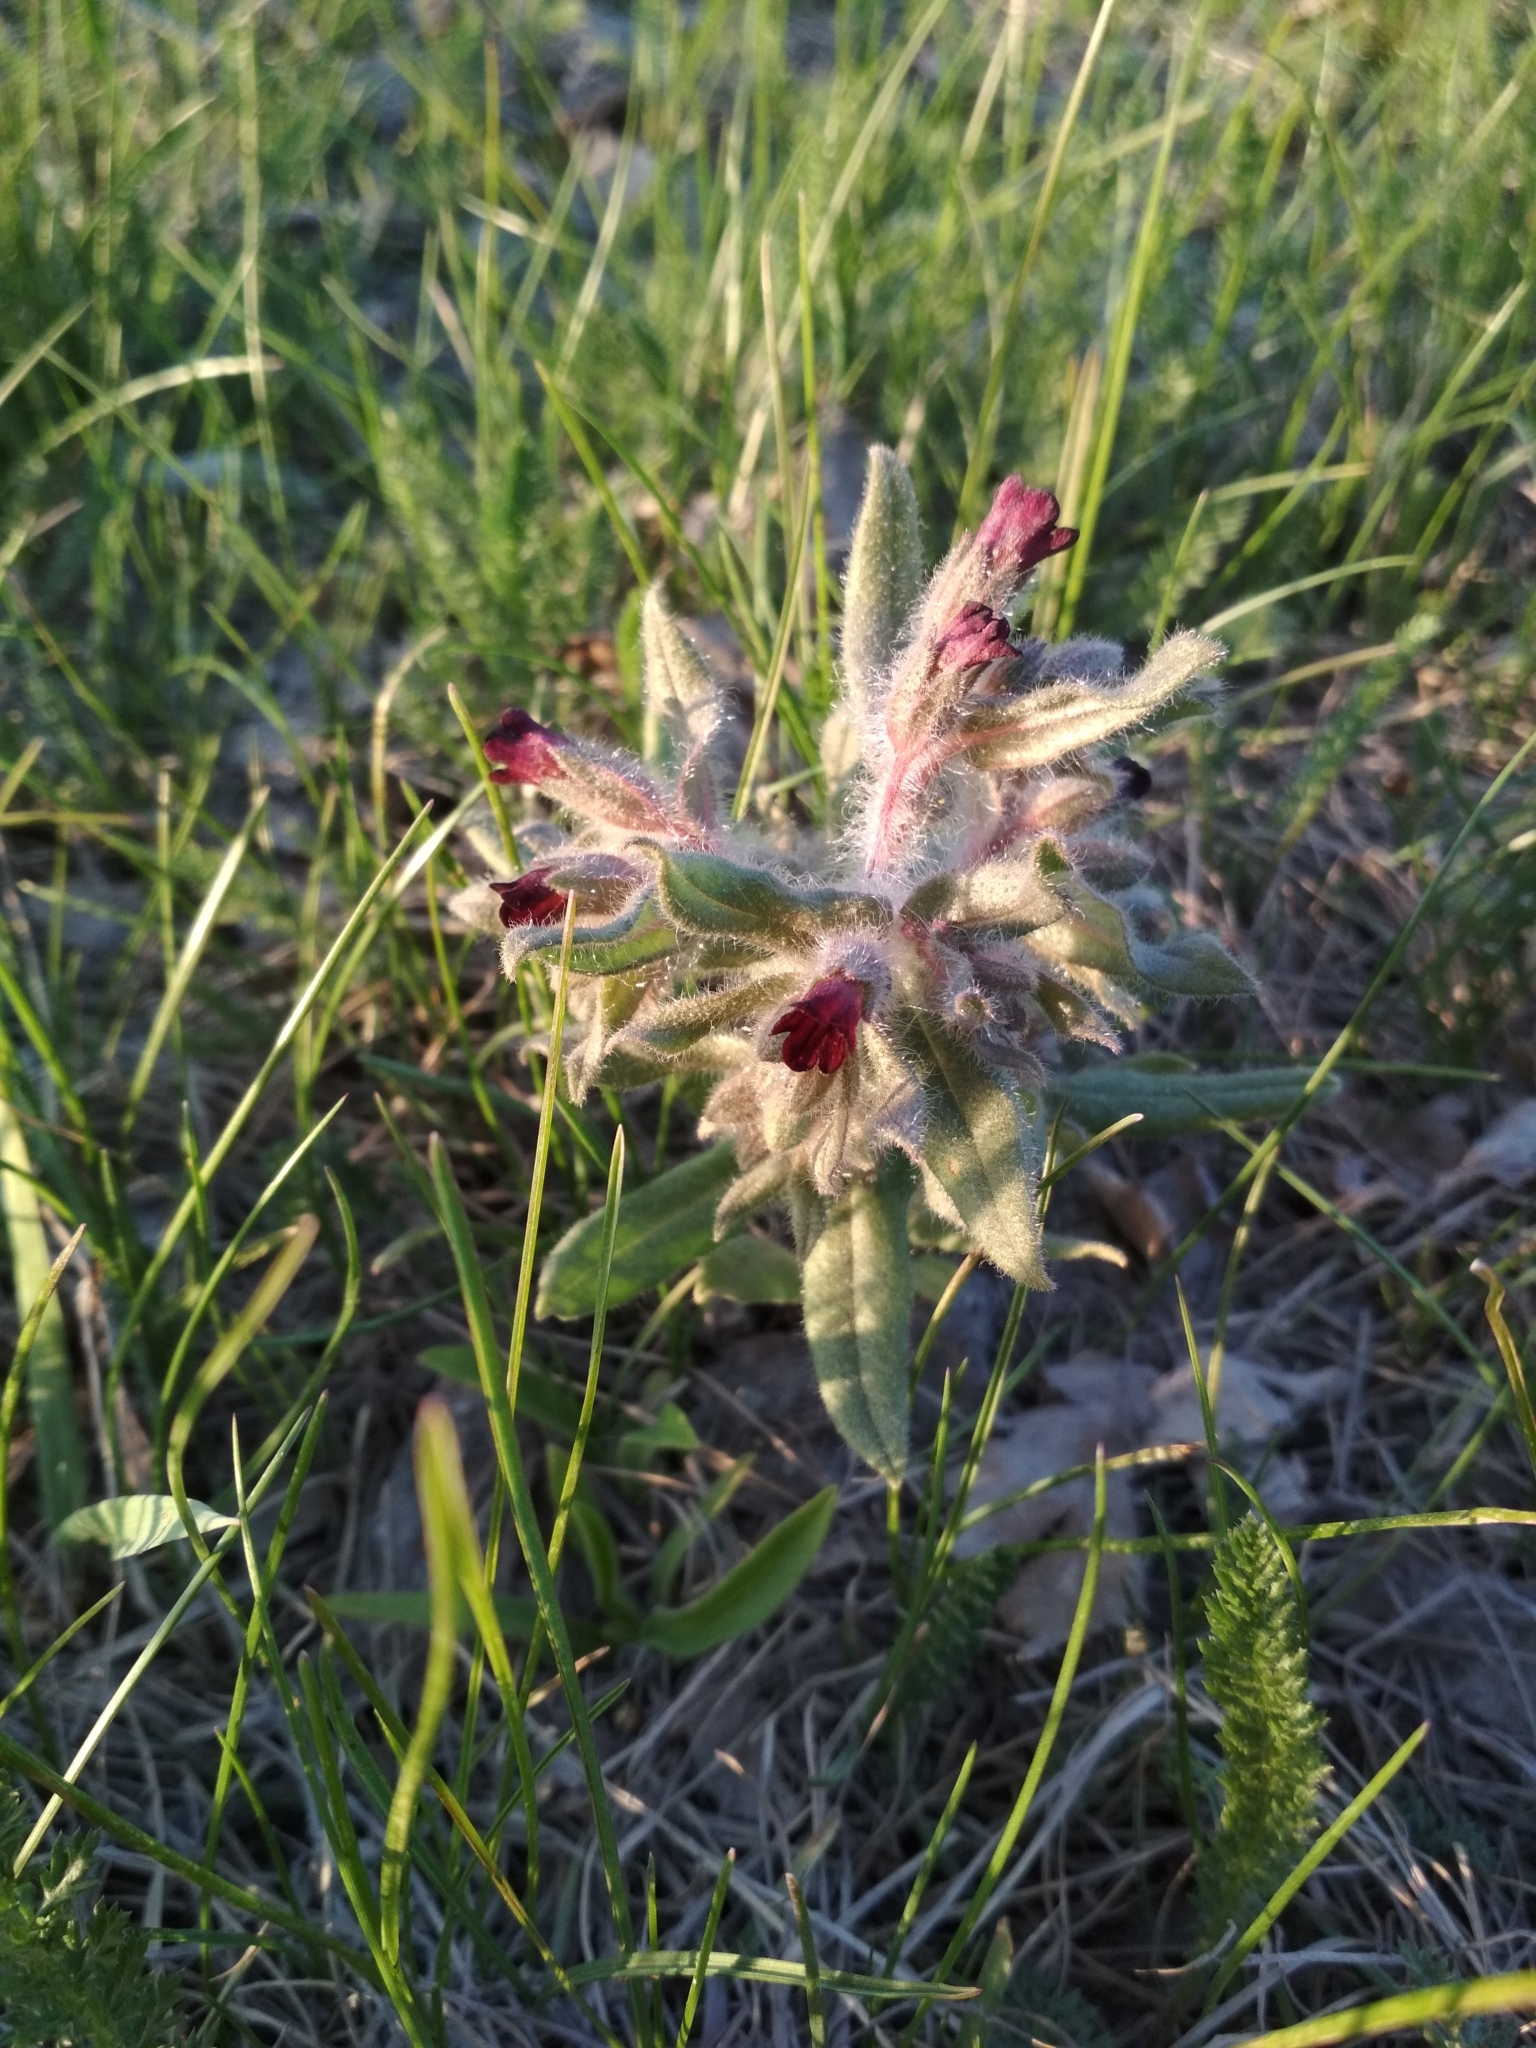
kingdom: Plantae
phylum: Tracheophyta
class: Magnoliopsida
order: Boraginales
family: Boraginaceae
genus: Nonea
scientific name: Nonea pulla
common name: Brown nonea
